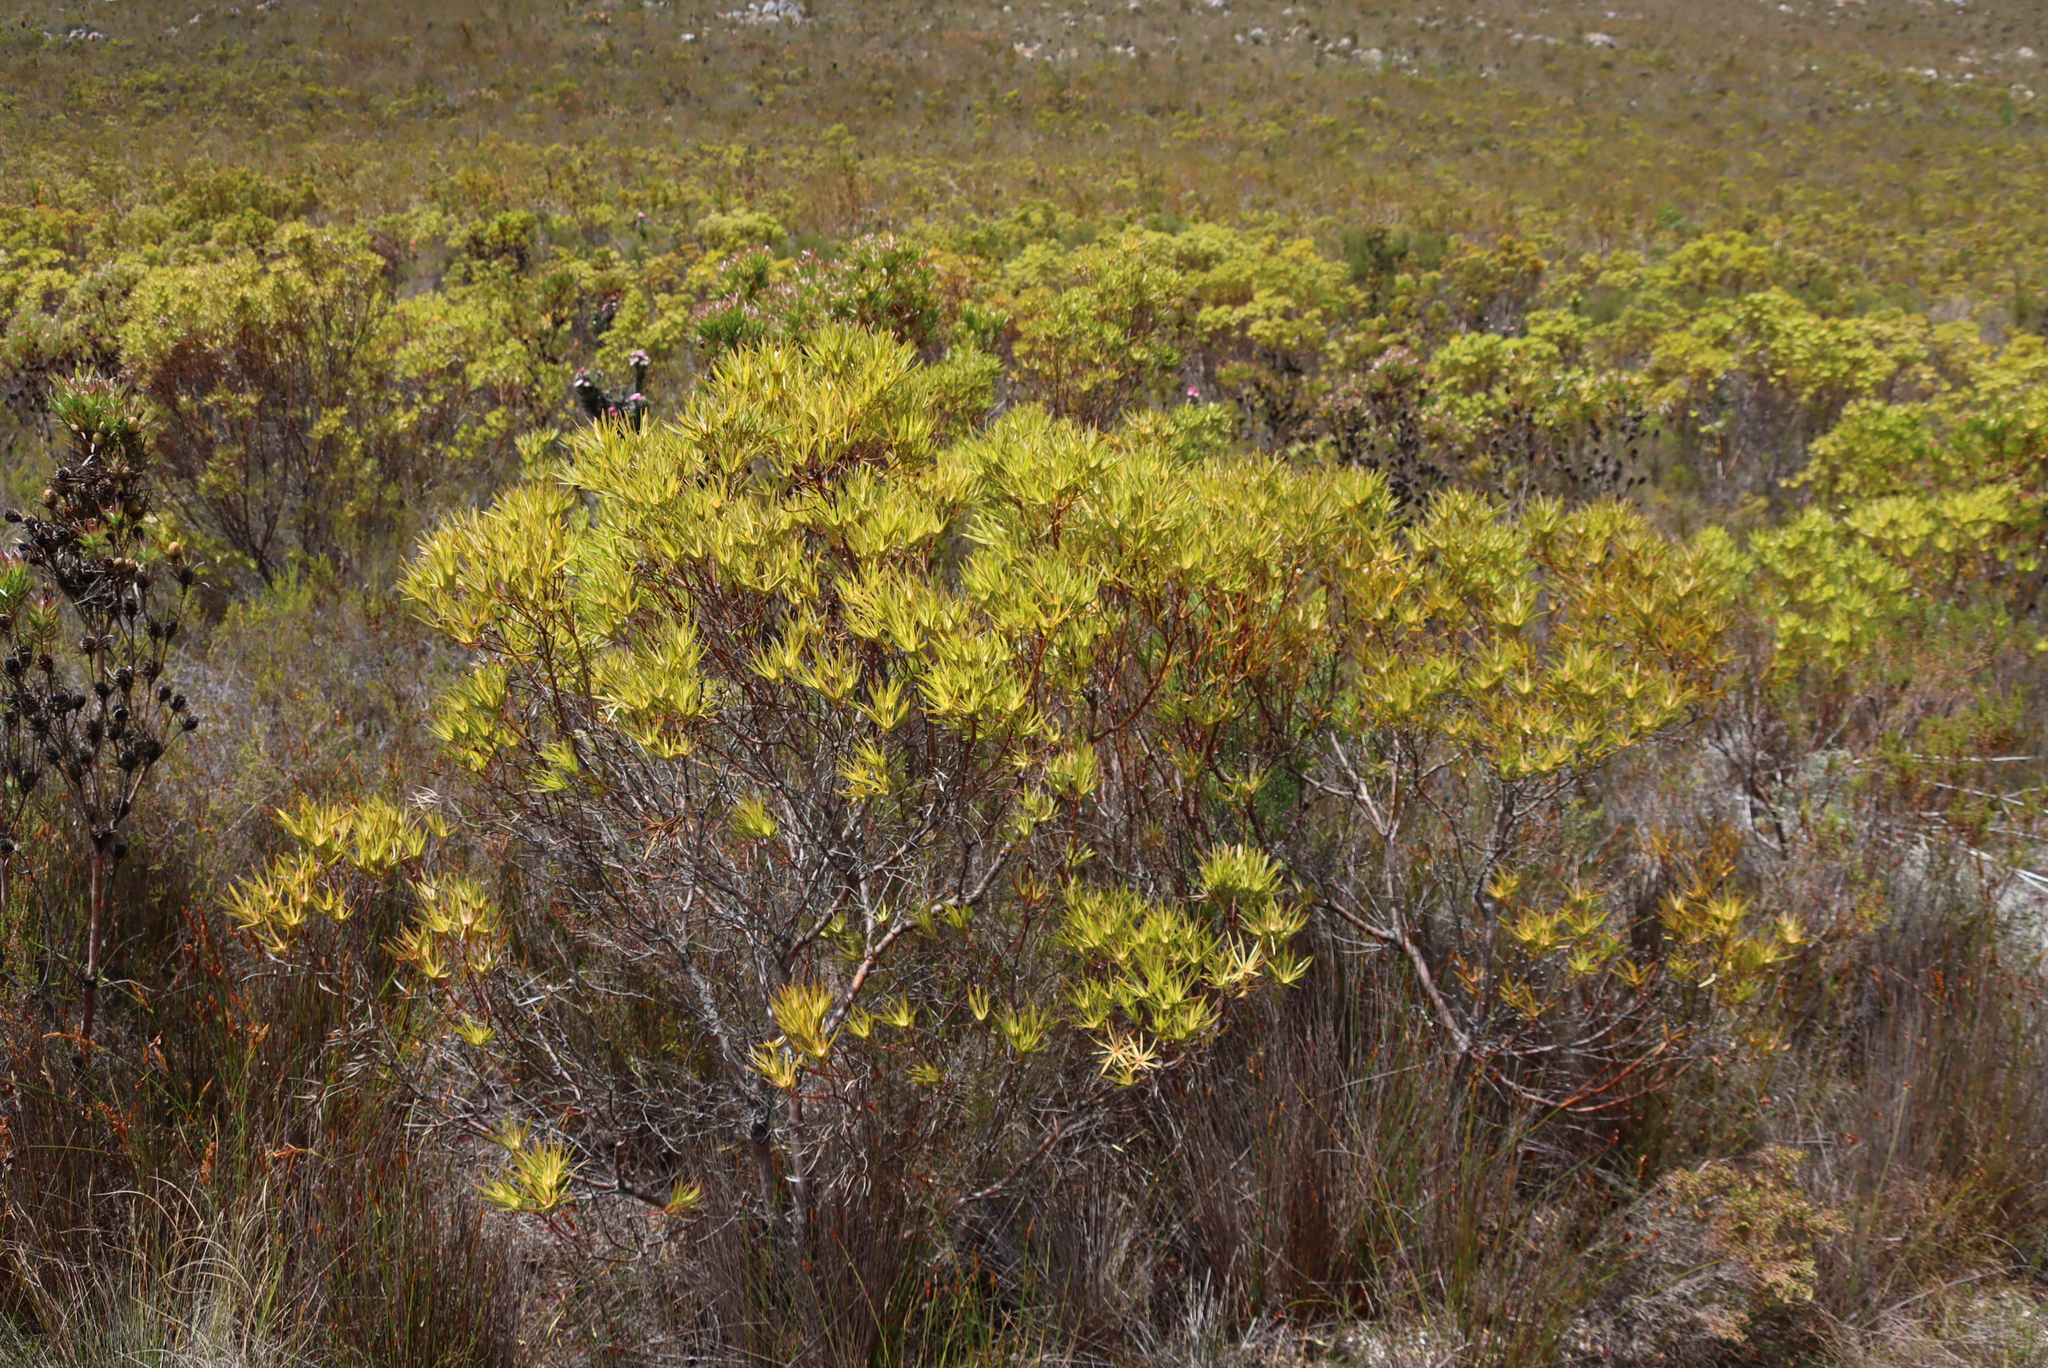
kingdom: Plantae
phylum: Tracheophyta
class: Magnoliopsida
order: Proteales
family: Proteaceae
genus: Leucadendron
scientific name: Leucadendron xanthoconus
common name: Sickle-leaf conebush
